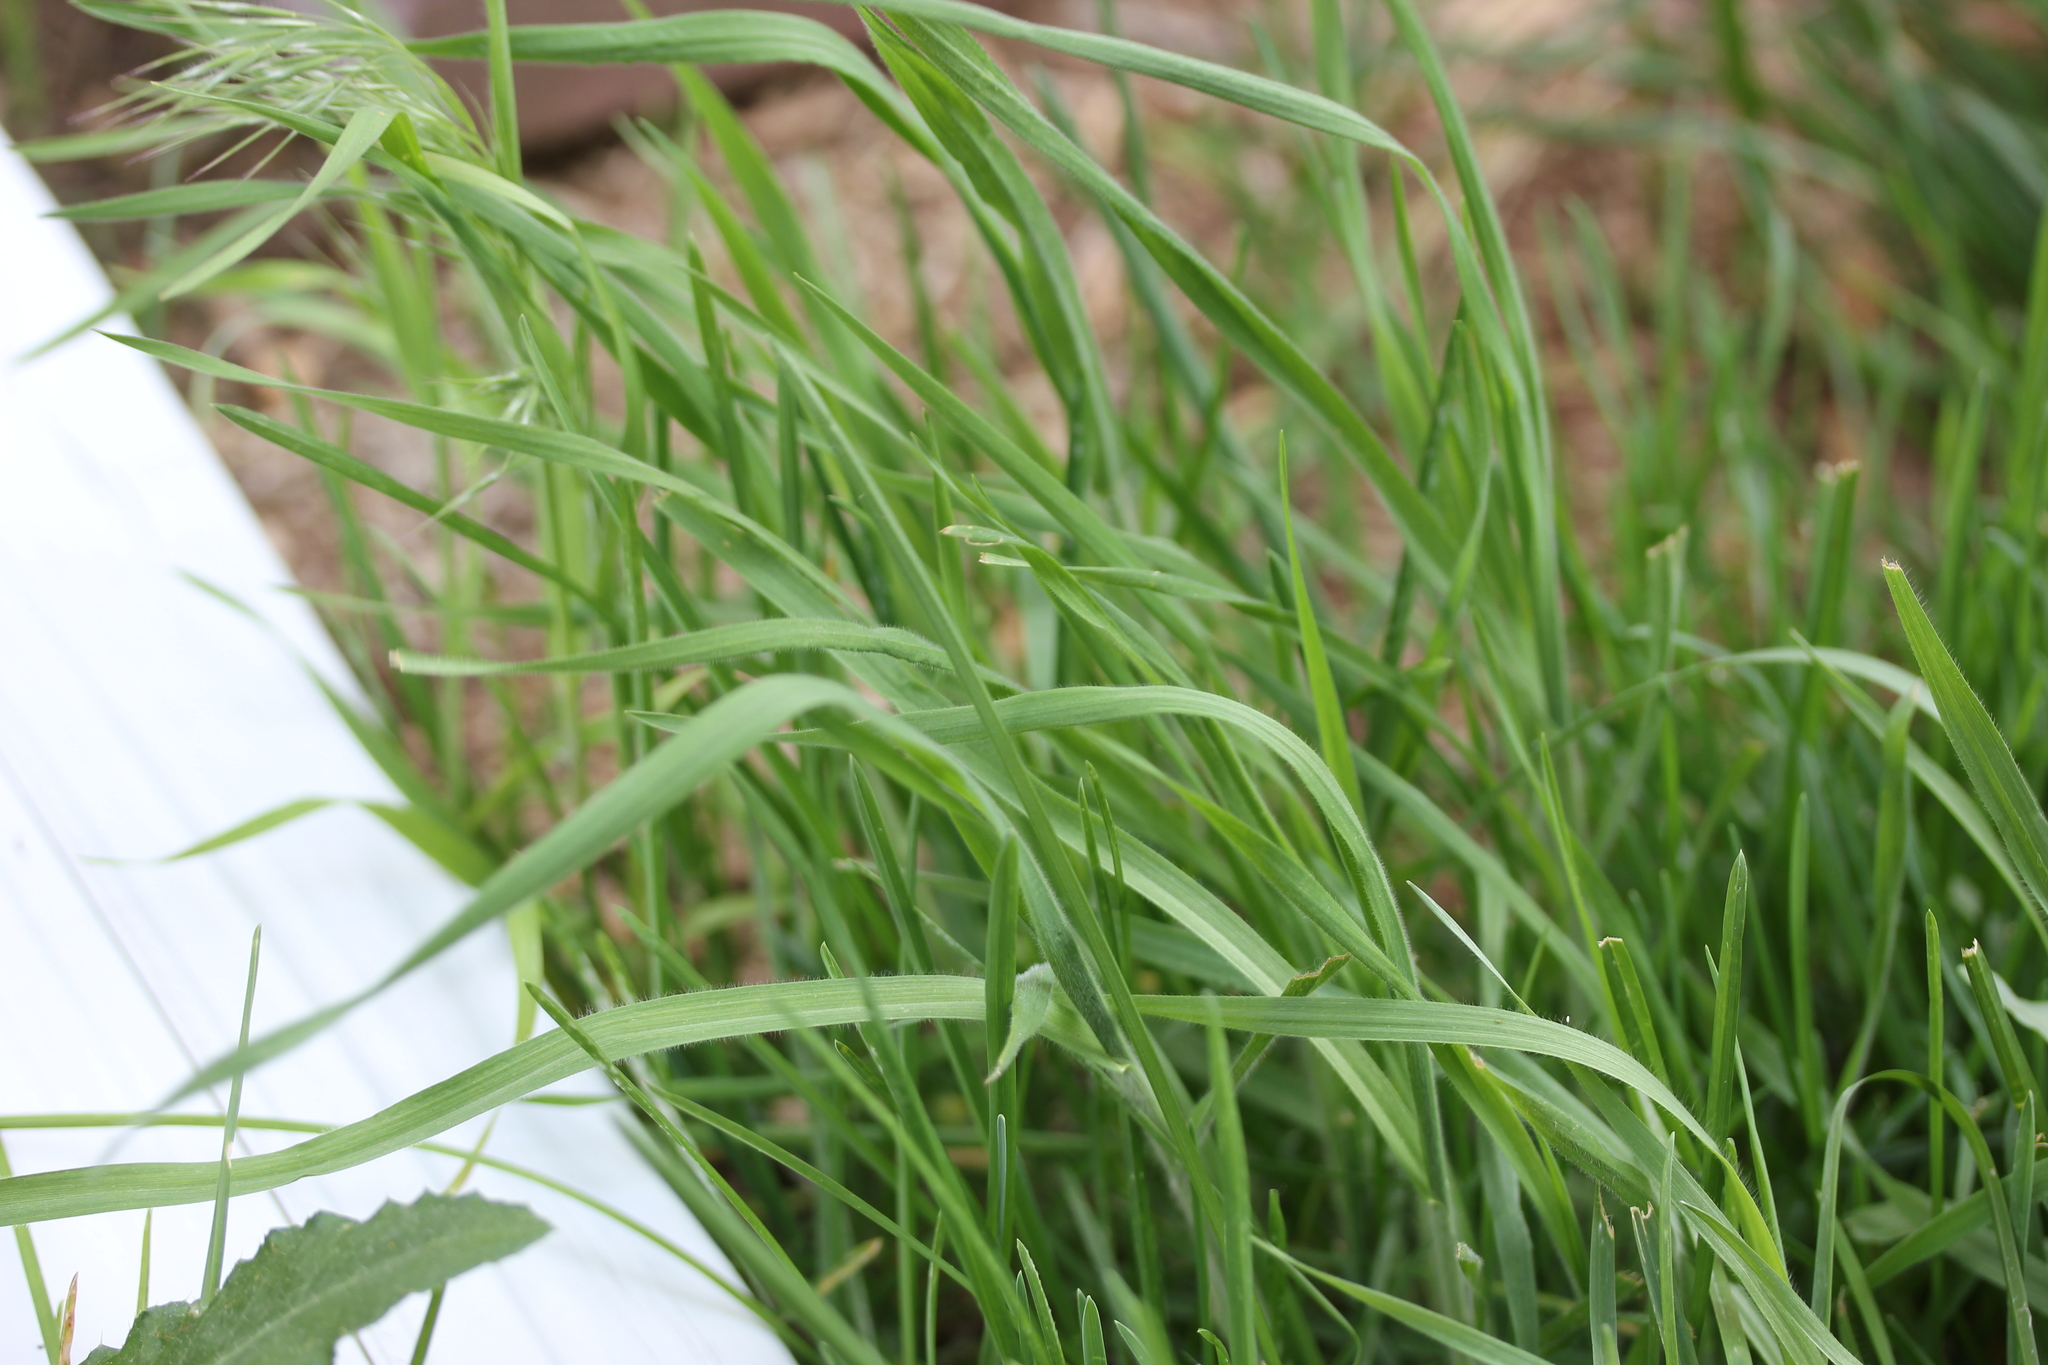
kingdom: Plantae
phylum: Tracheophyta
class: Liliopsida
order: Poales
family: Poaceae
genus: Bromus
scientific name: Bromus tectorum
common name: Cheatgrass
